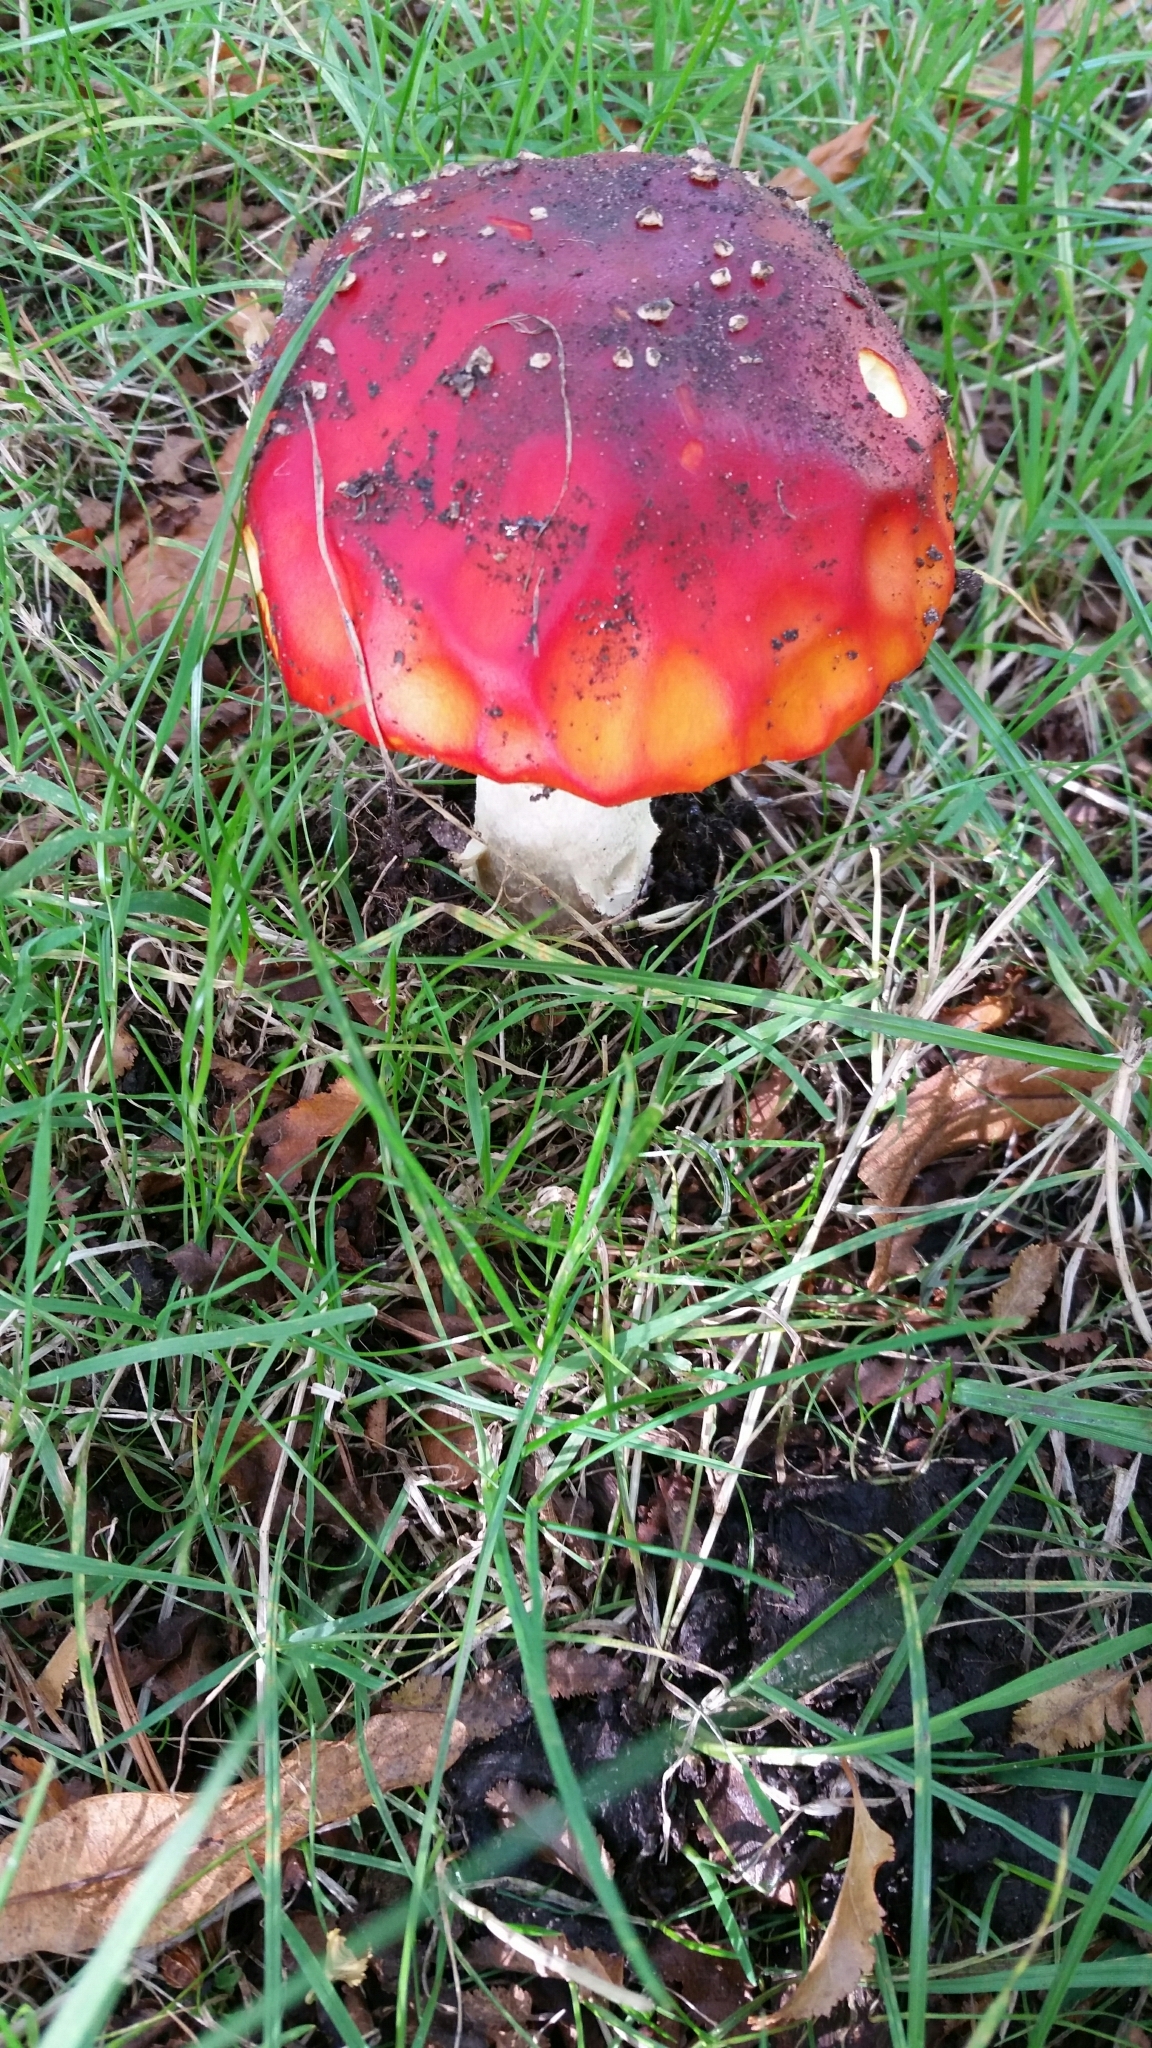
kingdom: Fungi
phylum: Basidiomycota
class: Agaricomycetes
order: Agaricales
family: Amanitaceae
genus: Amanita
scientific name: Amanita muscaria
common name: Fly agaric
